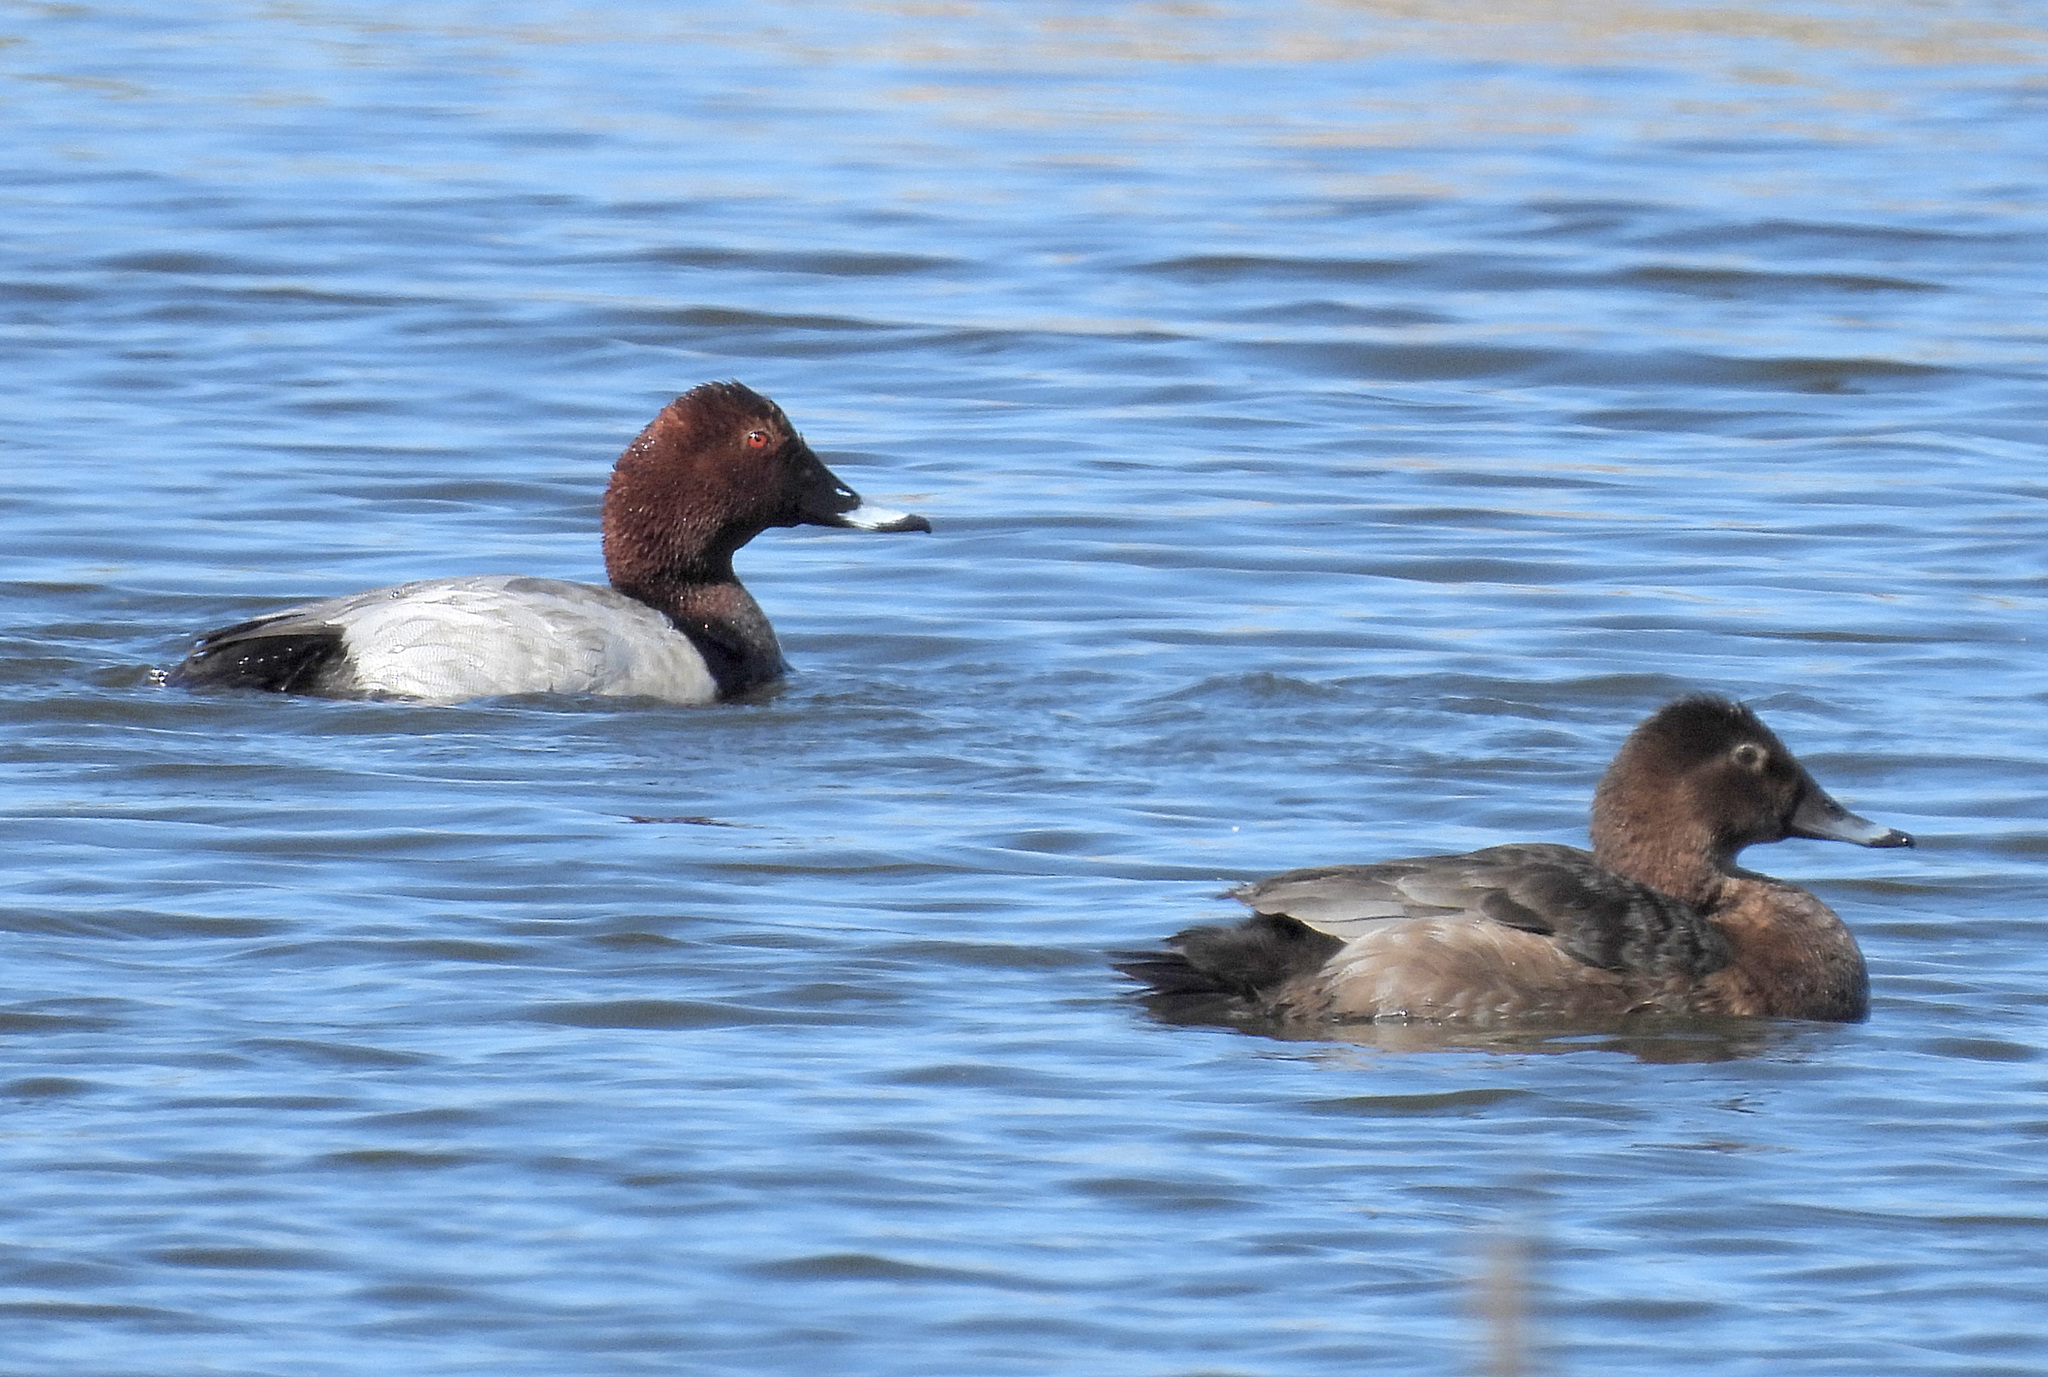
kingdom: Animalia
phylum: Chordata
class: Aves
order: Anseriformes
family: Anatidae
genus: Aythya
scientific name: Aythya ferina
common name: Common pochard
